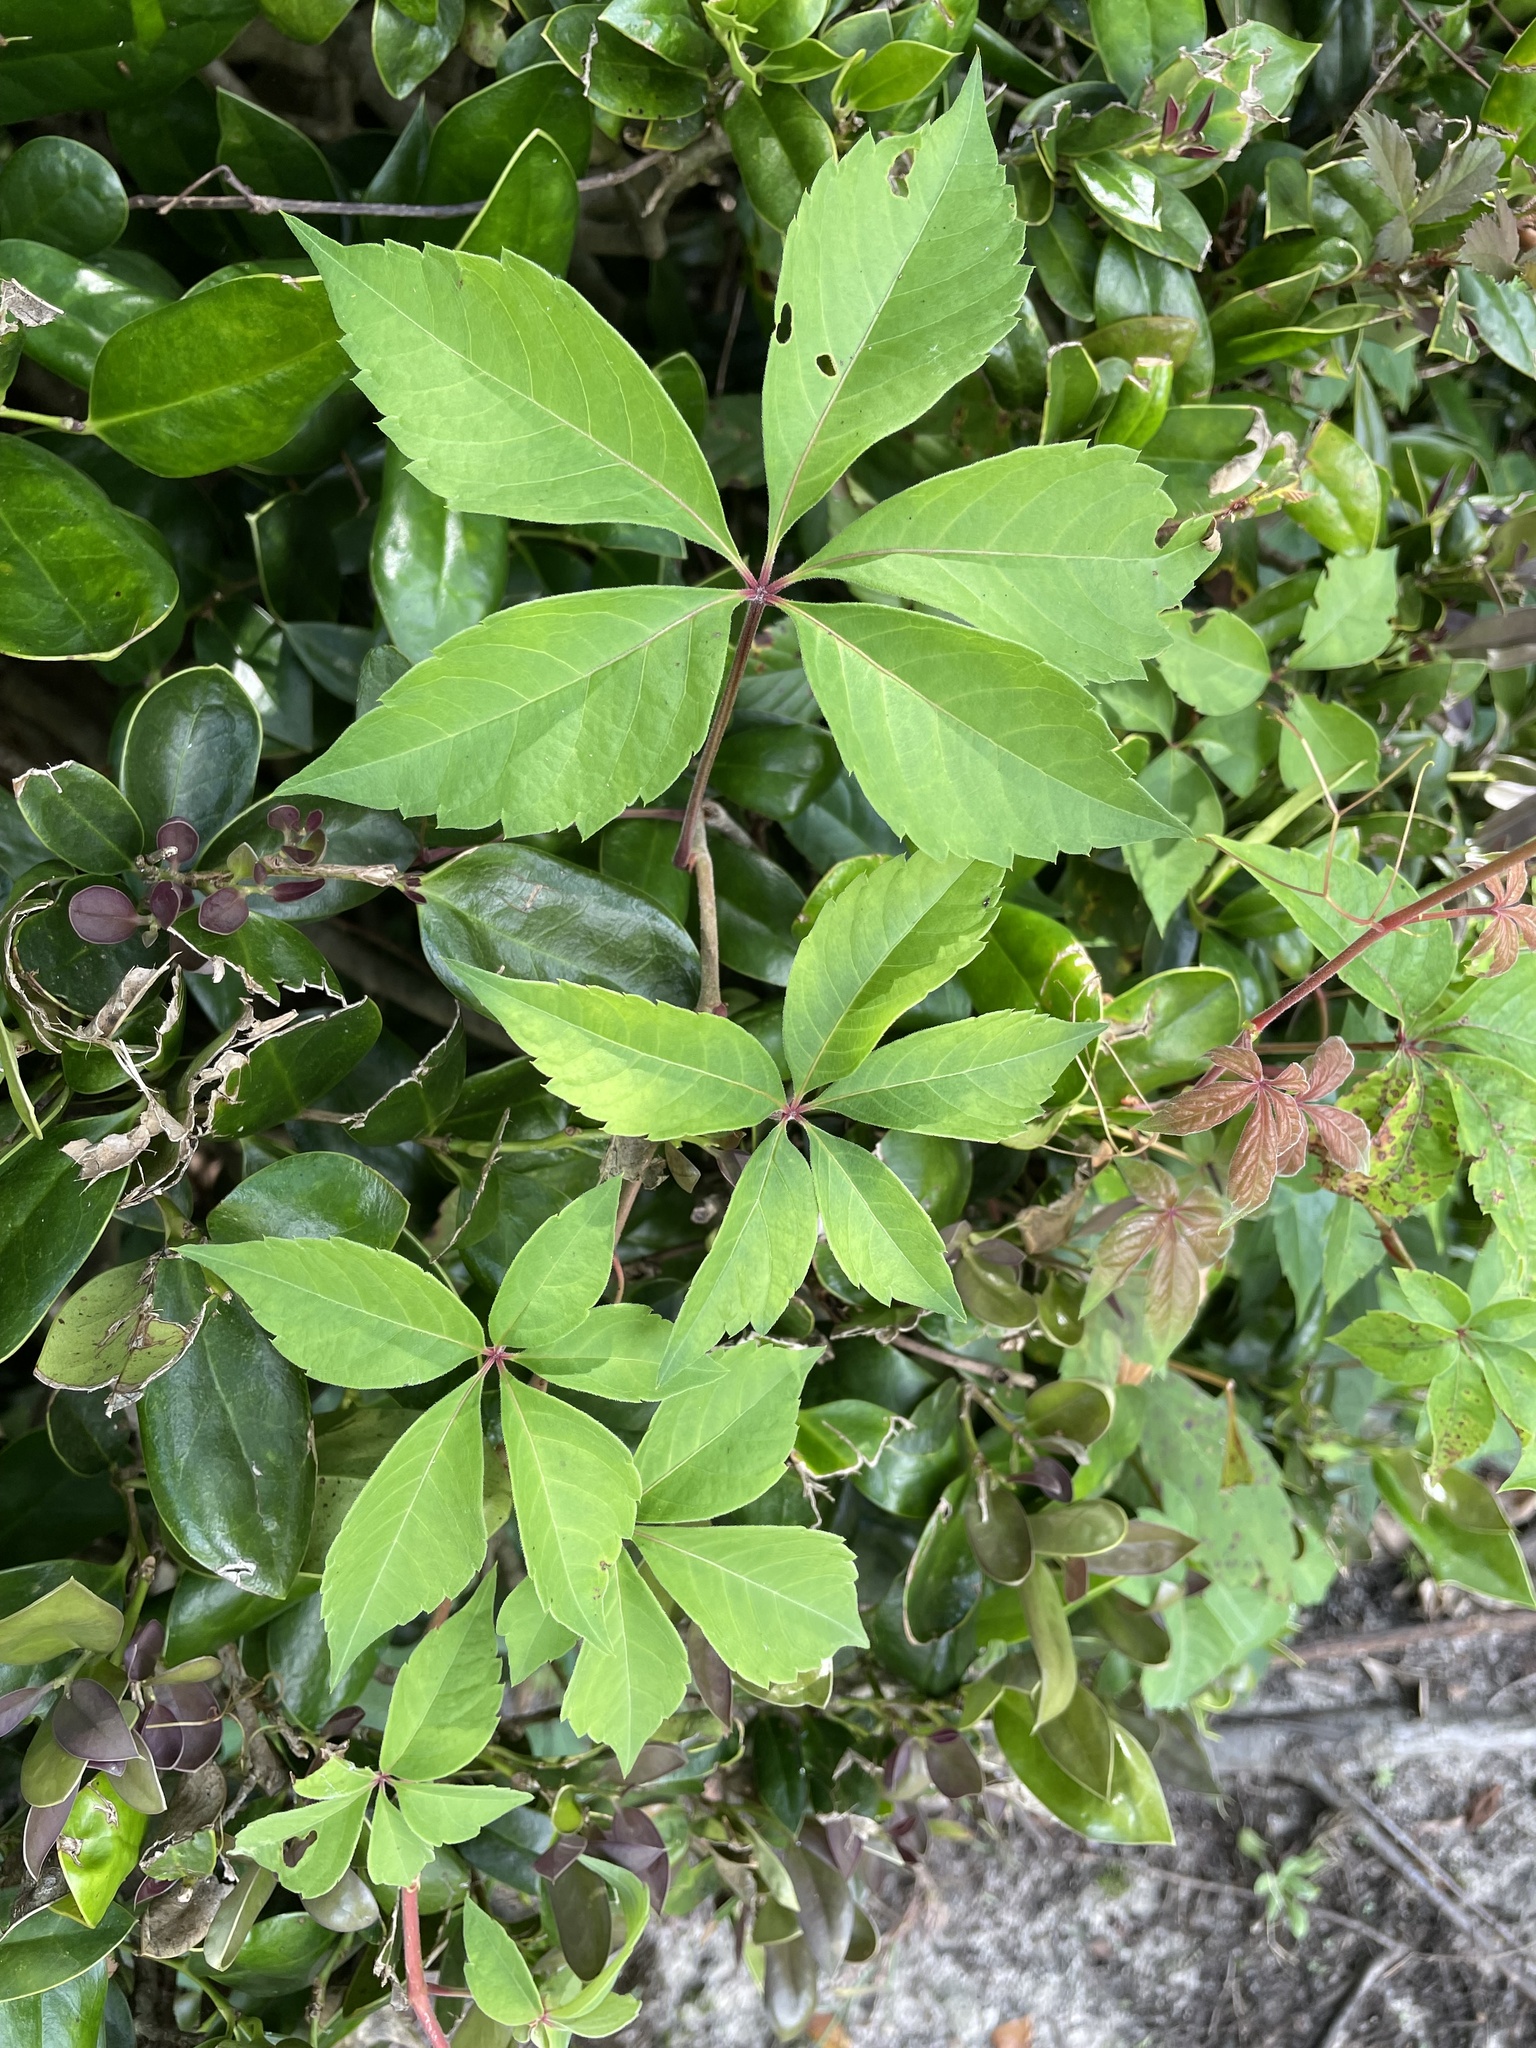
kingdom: Plantae
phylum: Tracheophyta
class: Magnoliopsida
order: Vitales
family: Vitaceae
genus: Parthenocissus
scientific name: Parthenocissus quinquefolia
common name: Virginia-creeper
